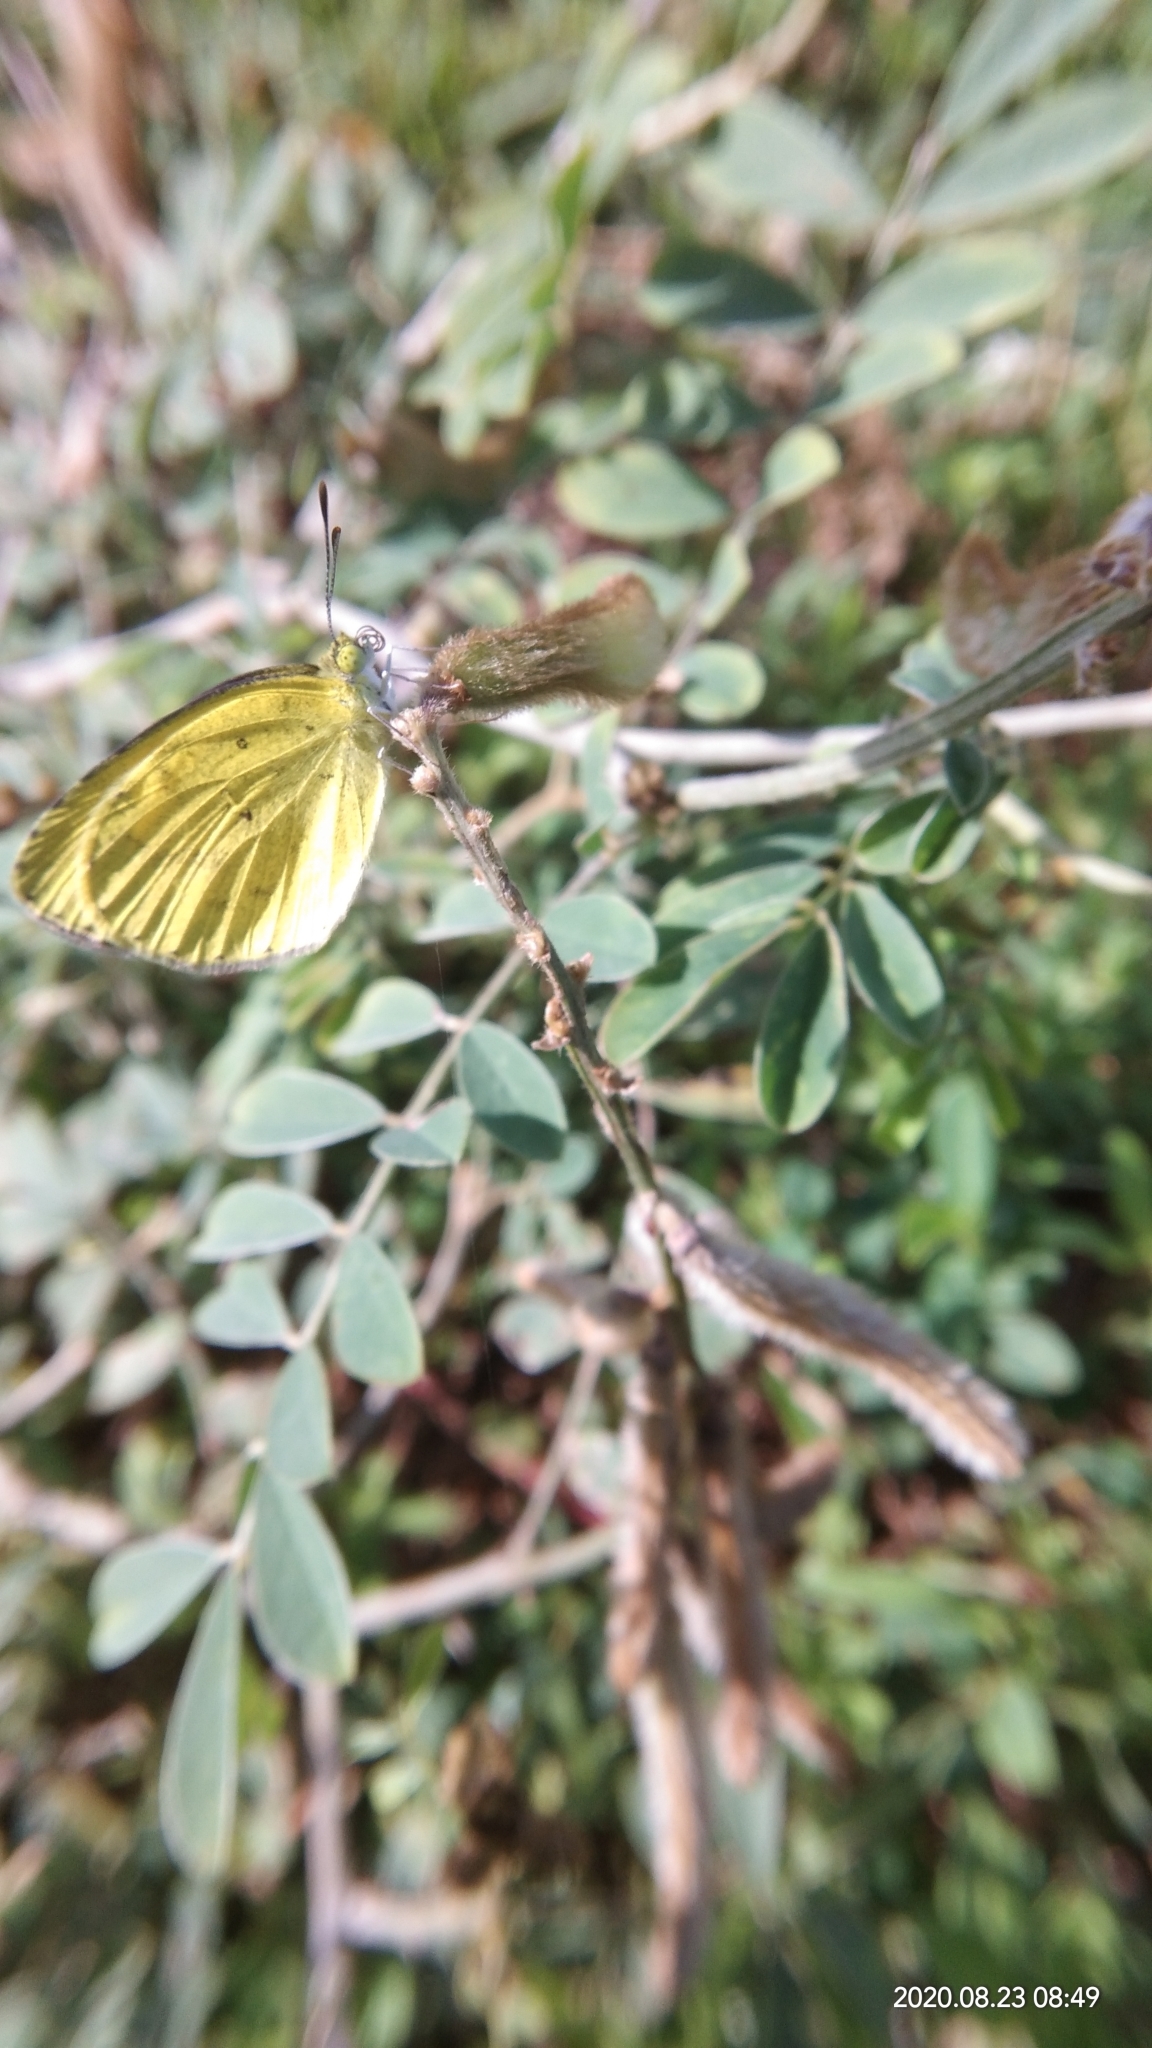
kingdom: Animalia
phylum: Arthropoda
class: Insecta
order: Lepidoptera
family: Pieridae
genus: Eurema
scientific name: Eurema brigitta
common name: Small grass yellow
